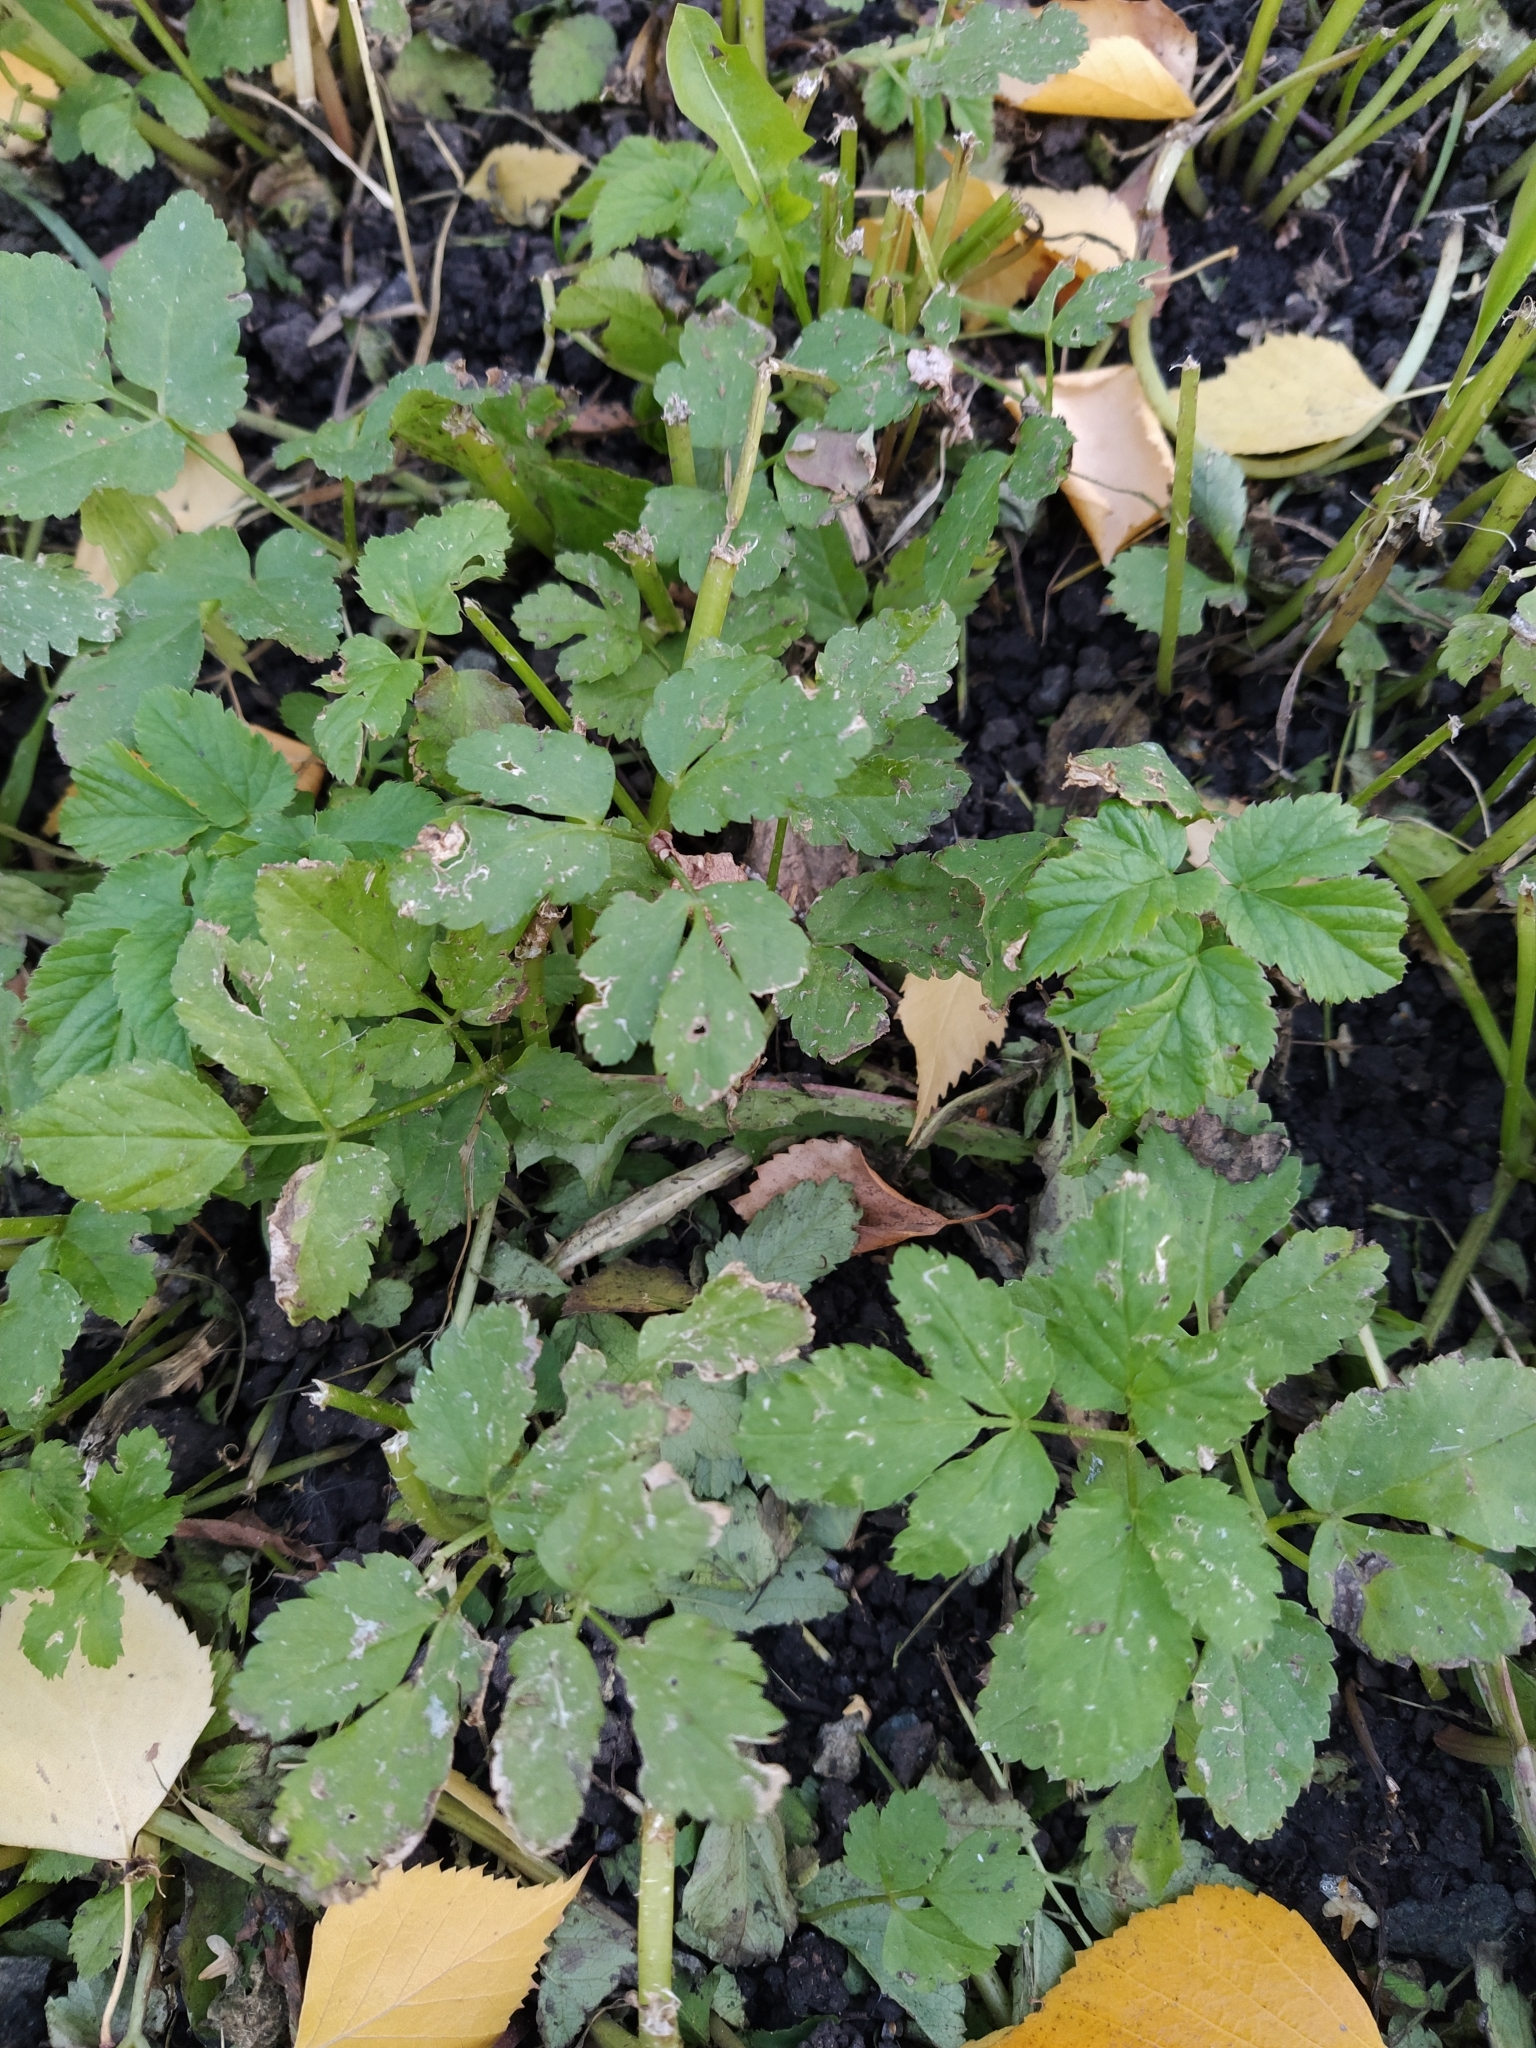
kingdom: Plantae
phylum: Tracheophyta
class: Magnoliopsida
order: Apiales
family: Apiaceae
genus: Aegopodium
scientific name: Aegopodium podagraria
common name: Ground-elder
